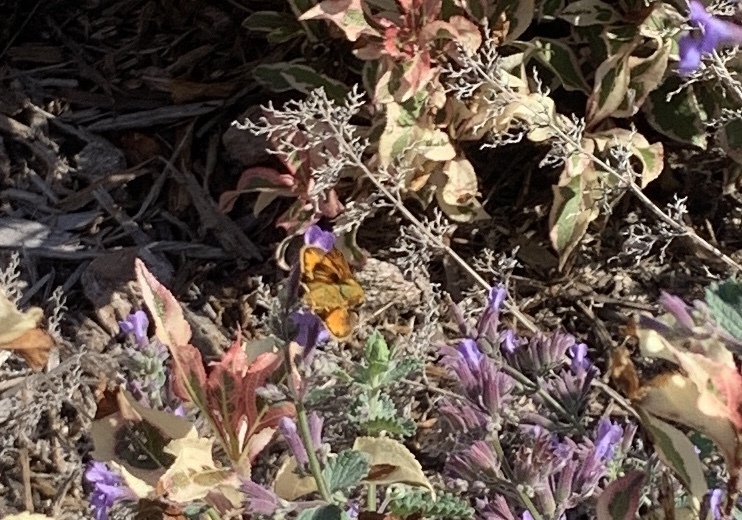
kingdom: Animalia
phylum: Arthropoda
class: Insecta
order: Lepidoptera
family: Hesperiidae
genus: Hylephila
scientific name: Hylephila phyleus
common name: Fiery skipper
